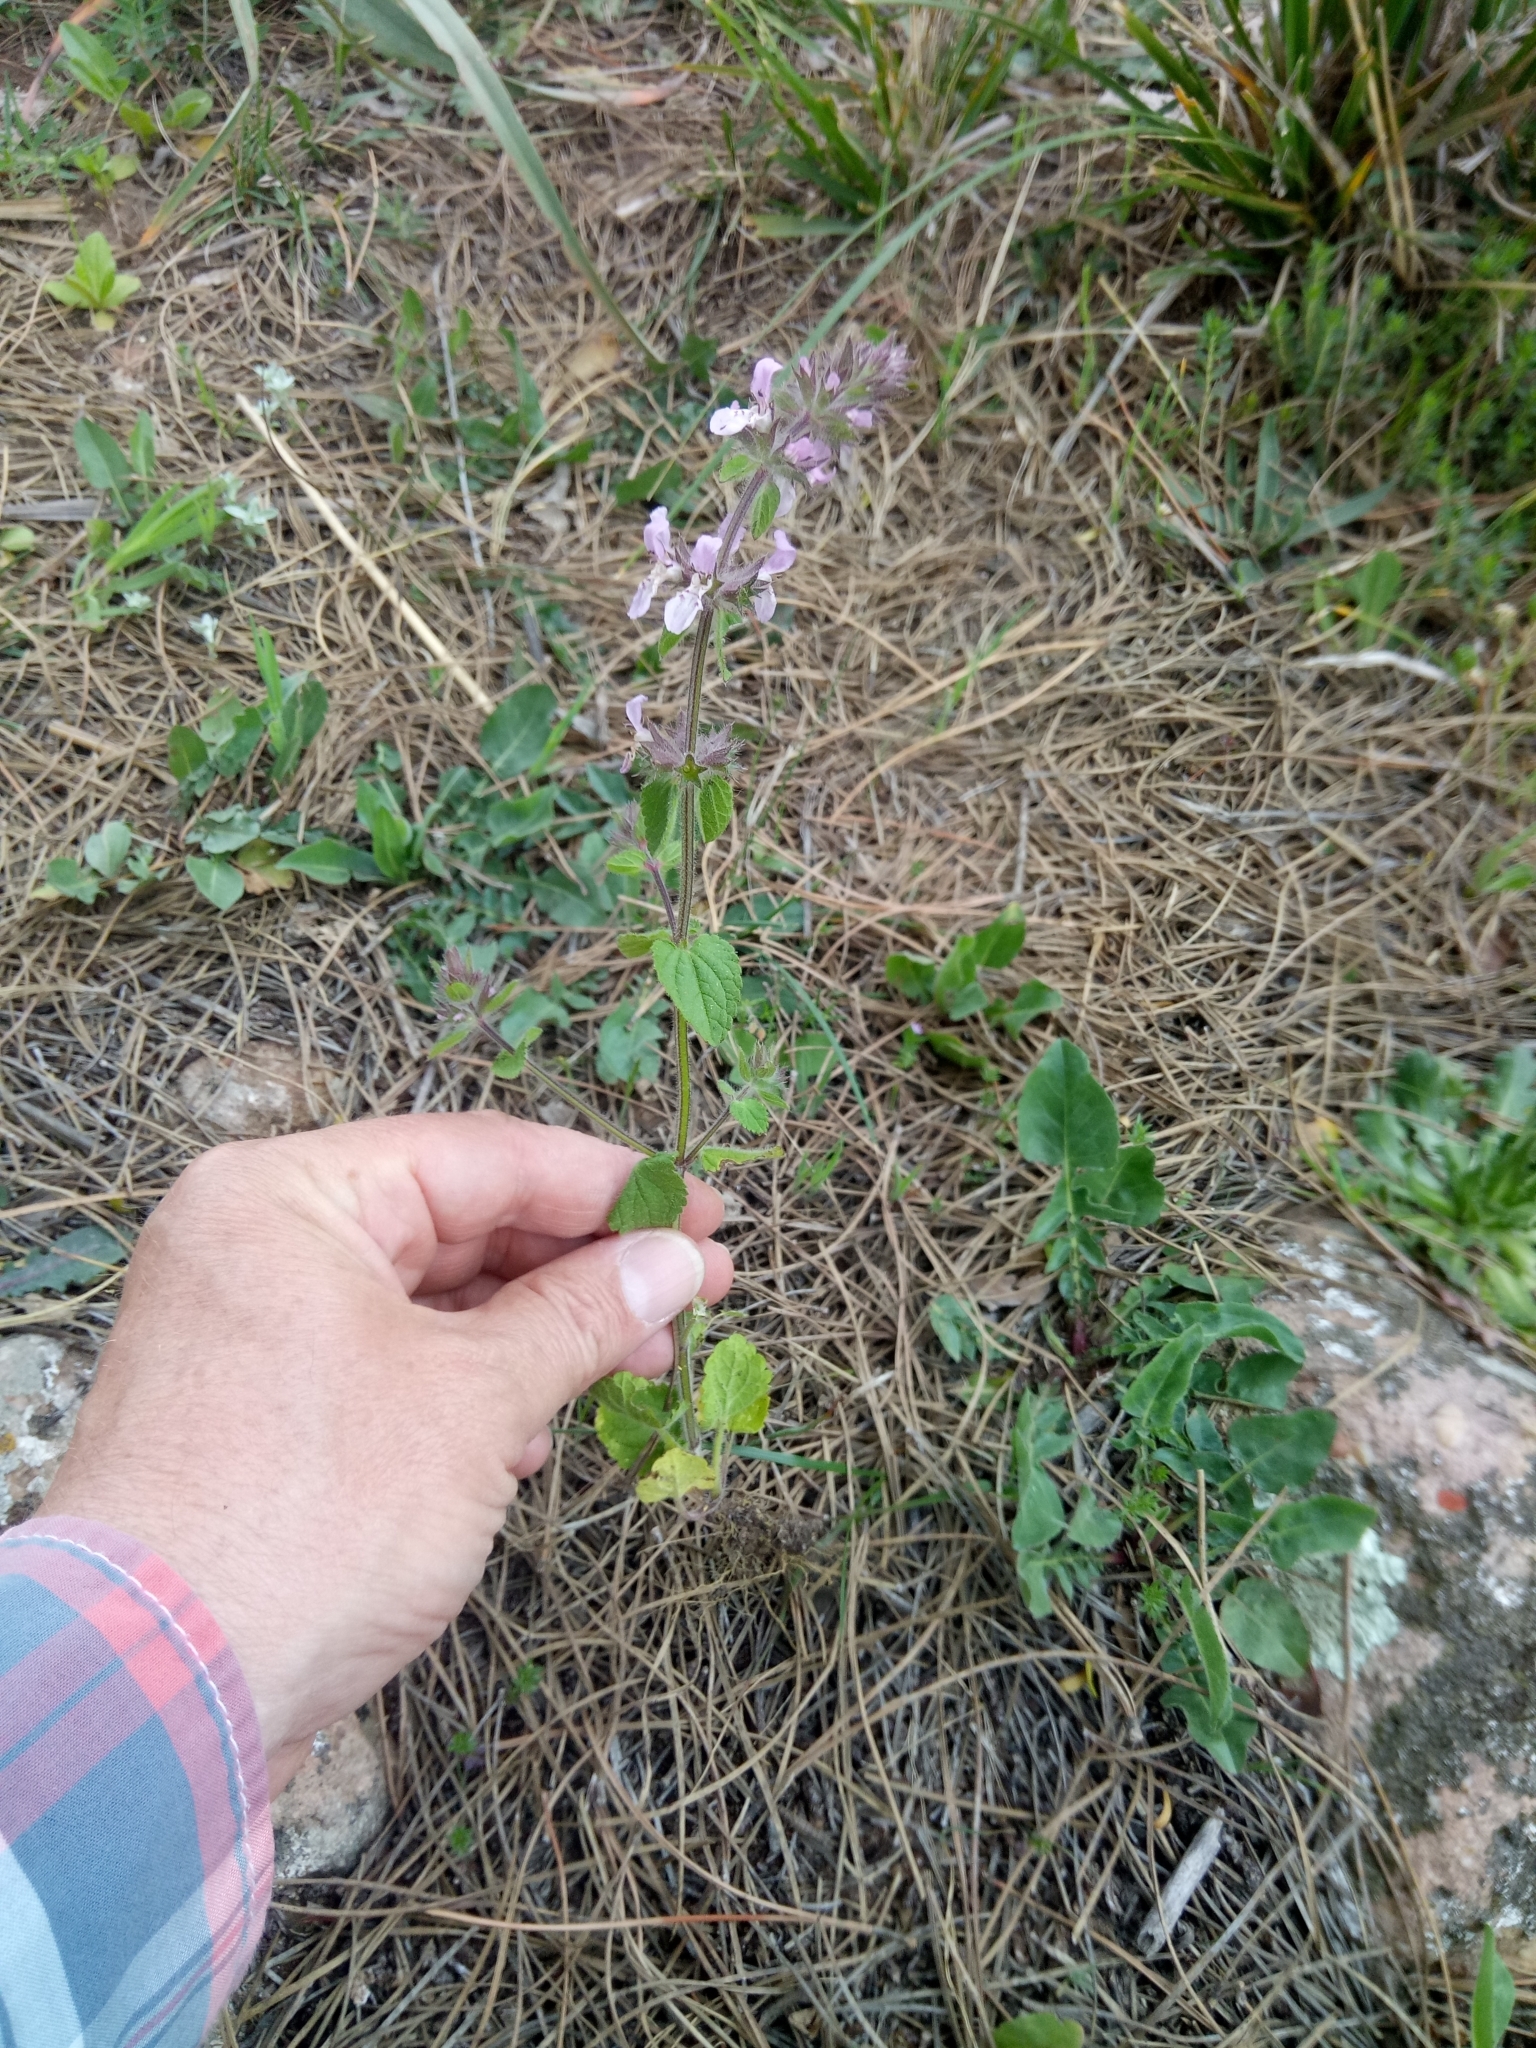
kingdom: Plantae
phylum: Tracheophyta
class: Magnoliopsida
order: Lamiales
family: Lamiaceae
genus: Stachys
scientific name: Stachys duriaei
